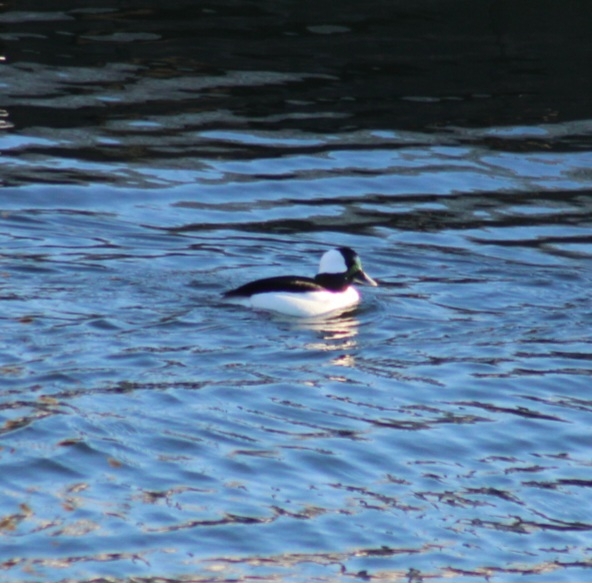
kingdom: Animalia
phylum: Chordata
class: Aves
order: Anseriformes
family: Anatidae
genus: Bucephala
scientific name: Bucephala albeola
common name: Bufflehead
